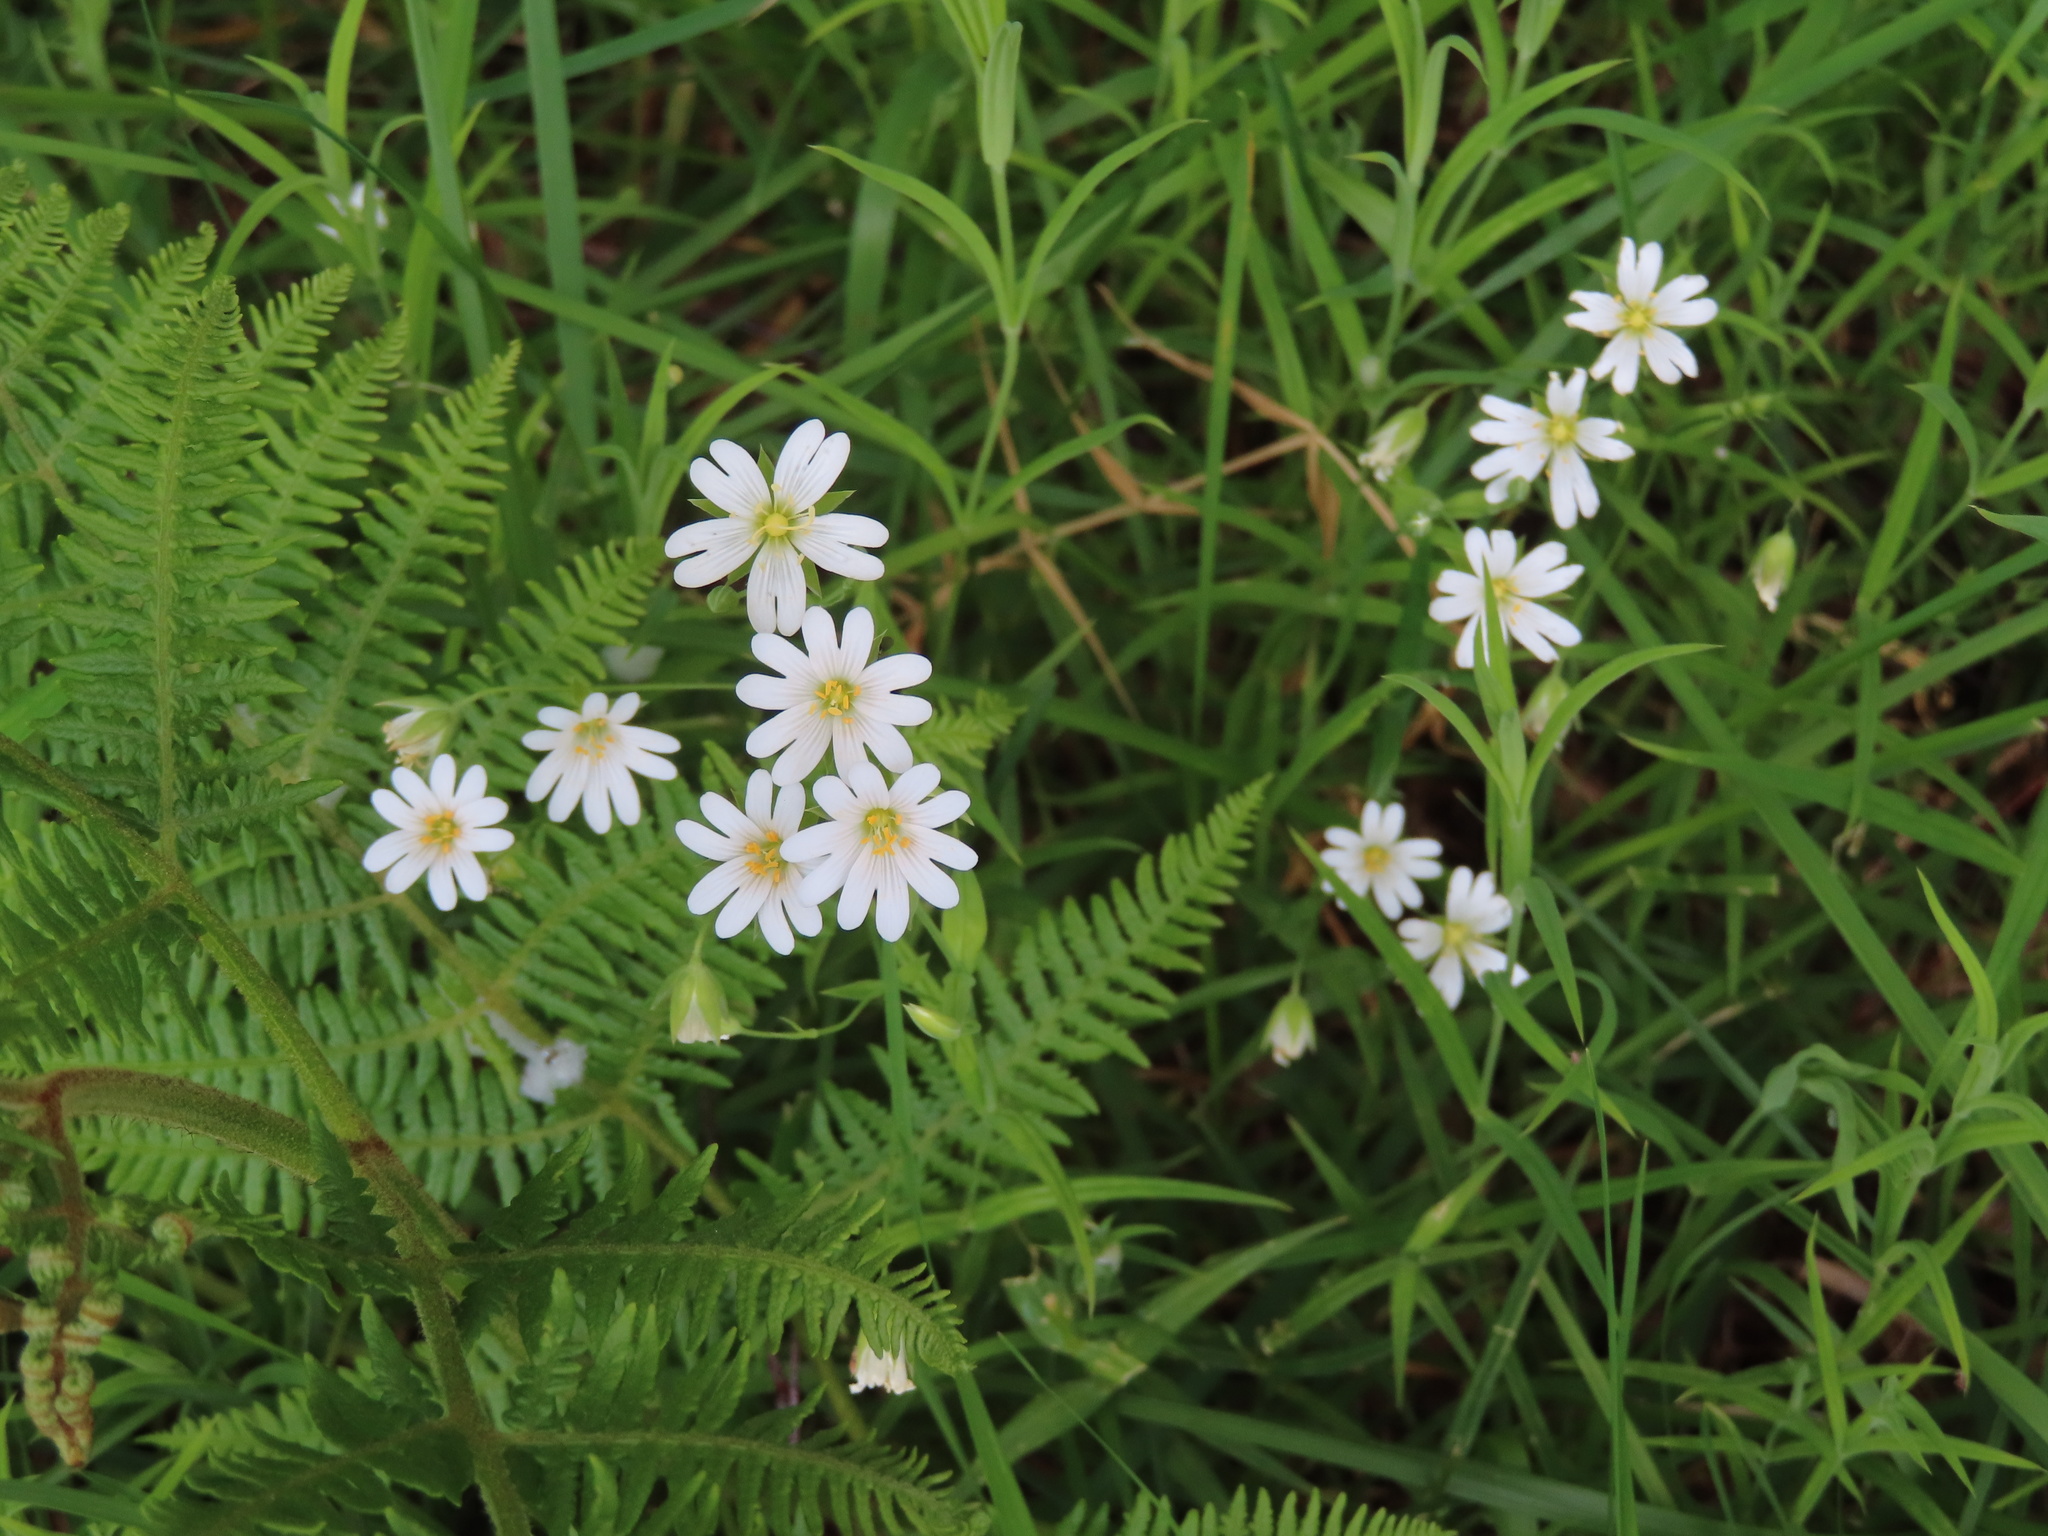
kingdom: Plantae
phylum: Tracheophyta
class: Magnoliopsida
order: Caryophyllales
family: Caryophyllaceae
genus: Rabelera
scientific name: Rabelera holostea
